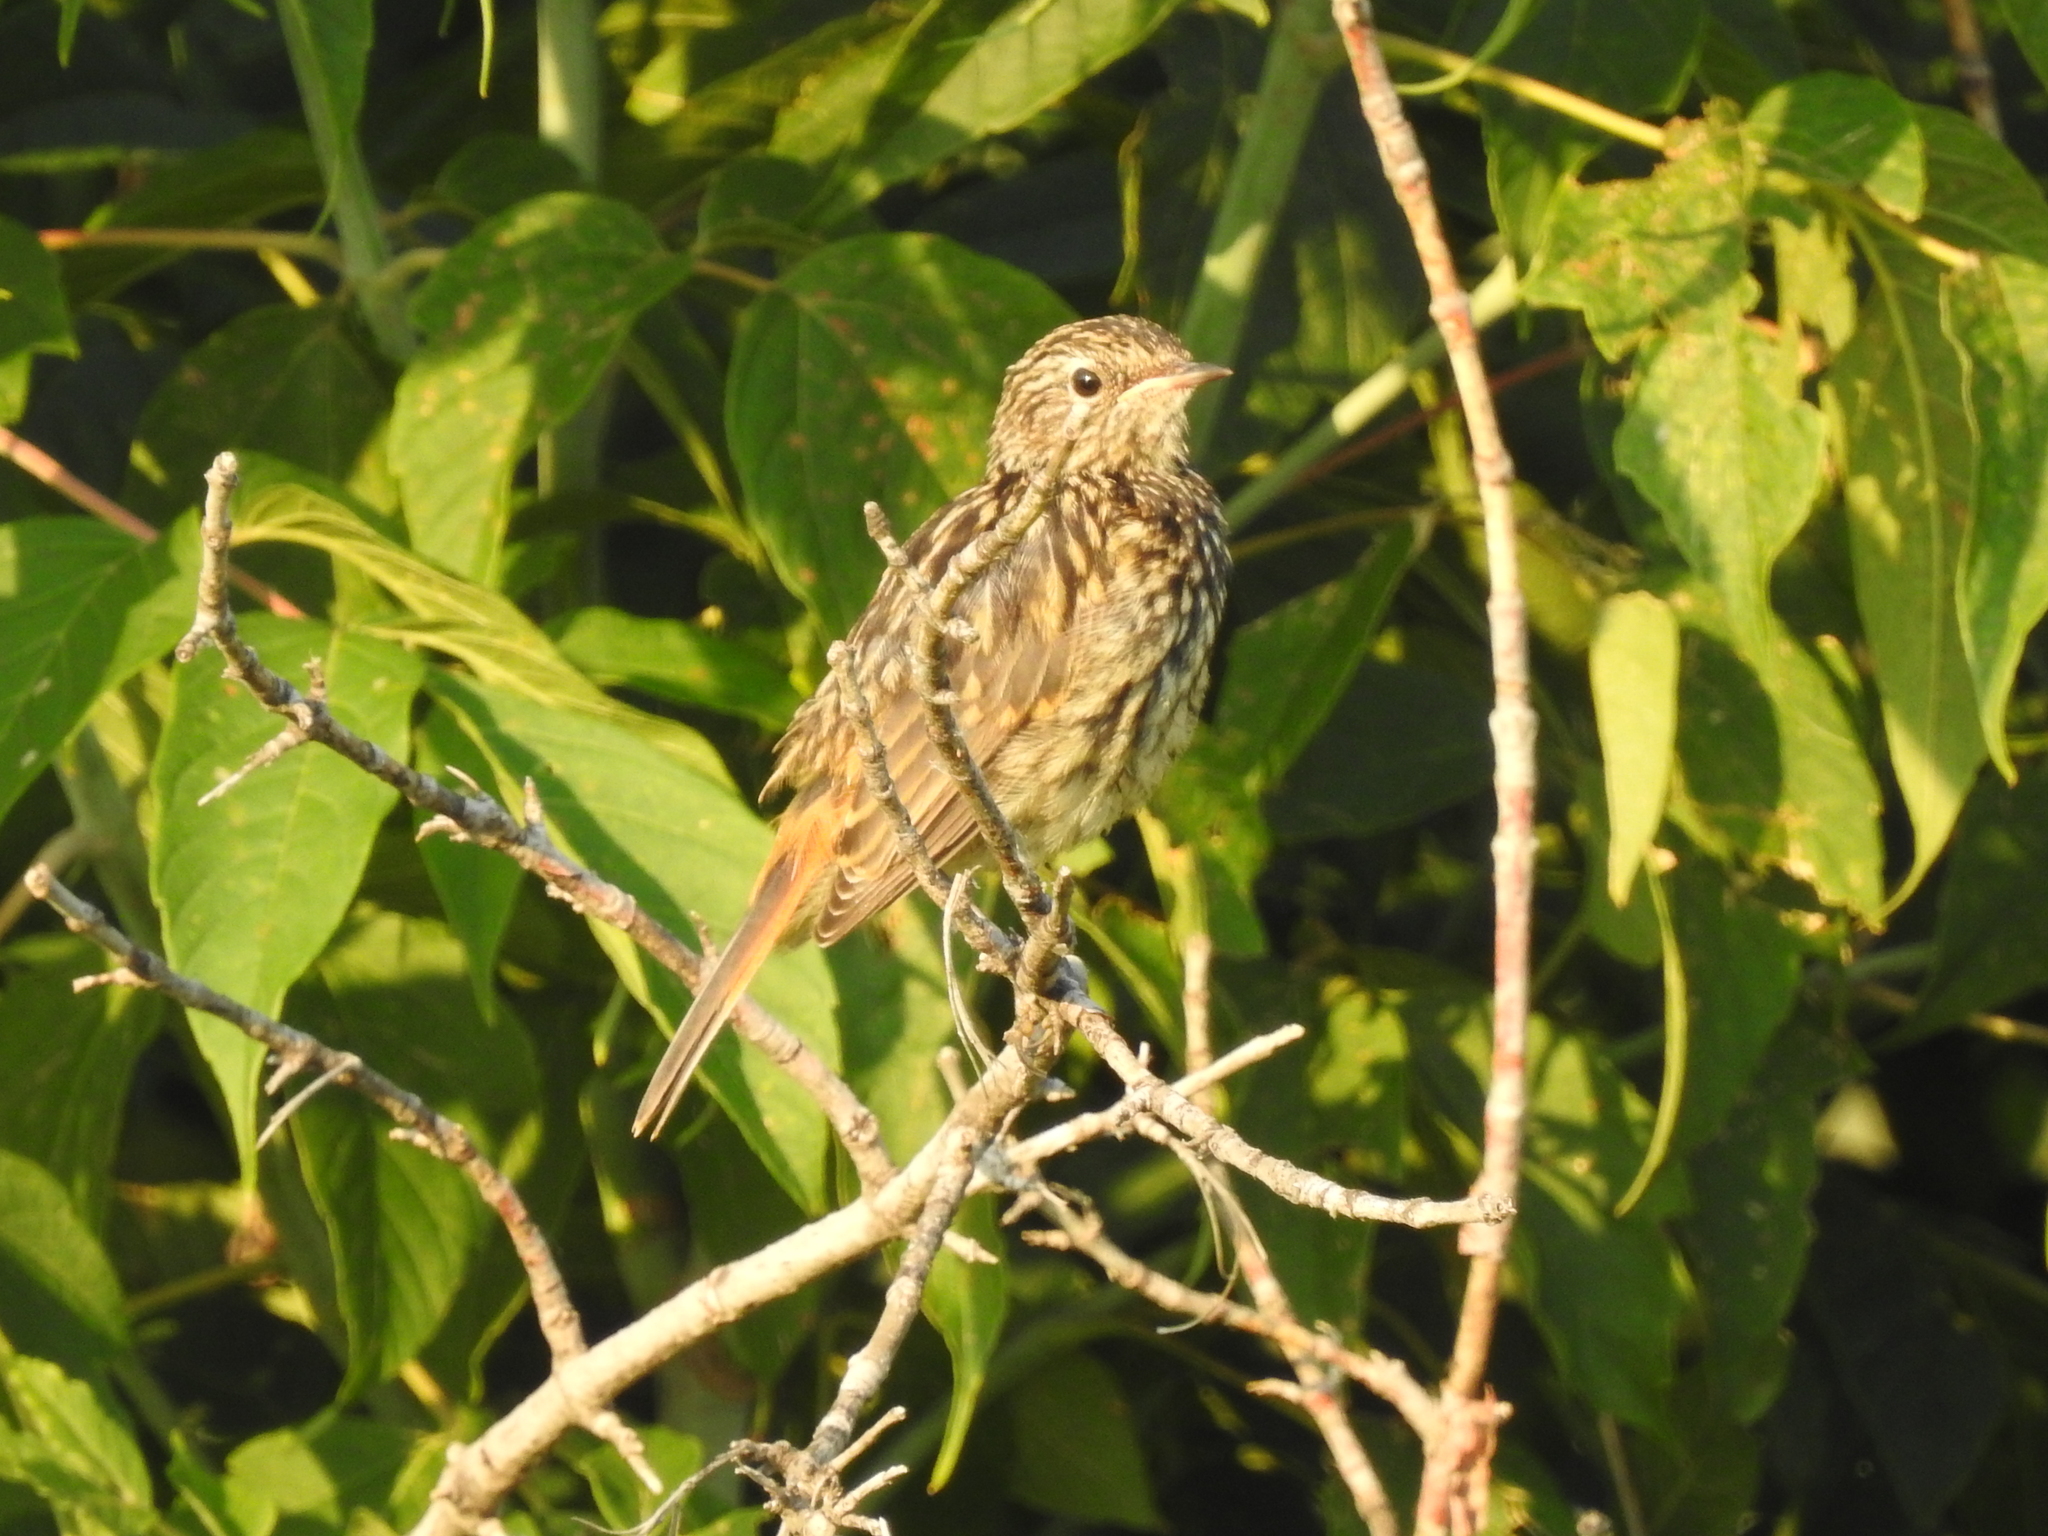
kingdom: Animalia
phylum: Chordata
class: Aves
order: Passeriformes
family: Muscicapidae
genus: Luscinia
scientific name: Luscinia svecica
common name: Bluethroat
